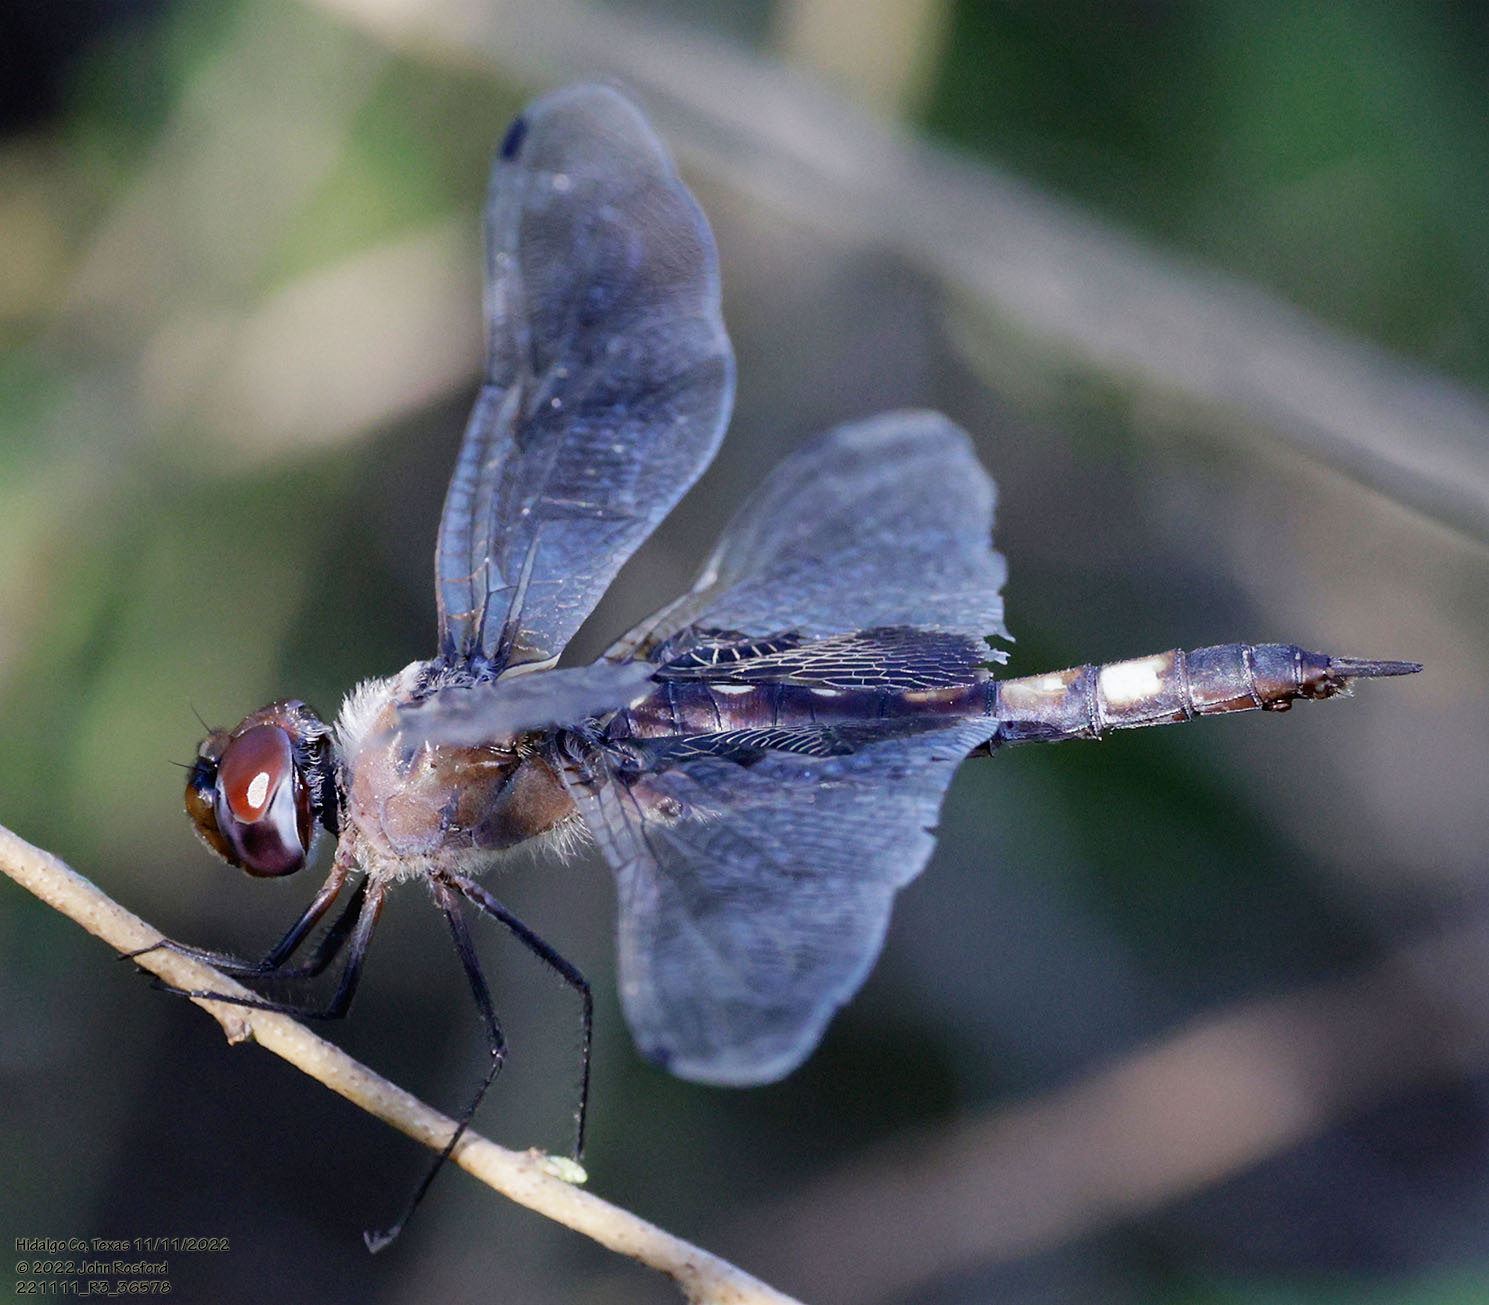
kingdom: Animalia
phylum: Arthropoda
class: Insecta
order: Odonata
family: Libellulidae
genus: Tramea
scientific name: Tramea lacerata
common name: Black saddlebags
